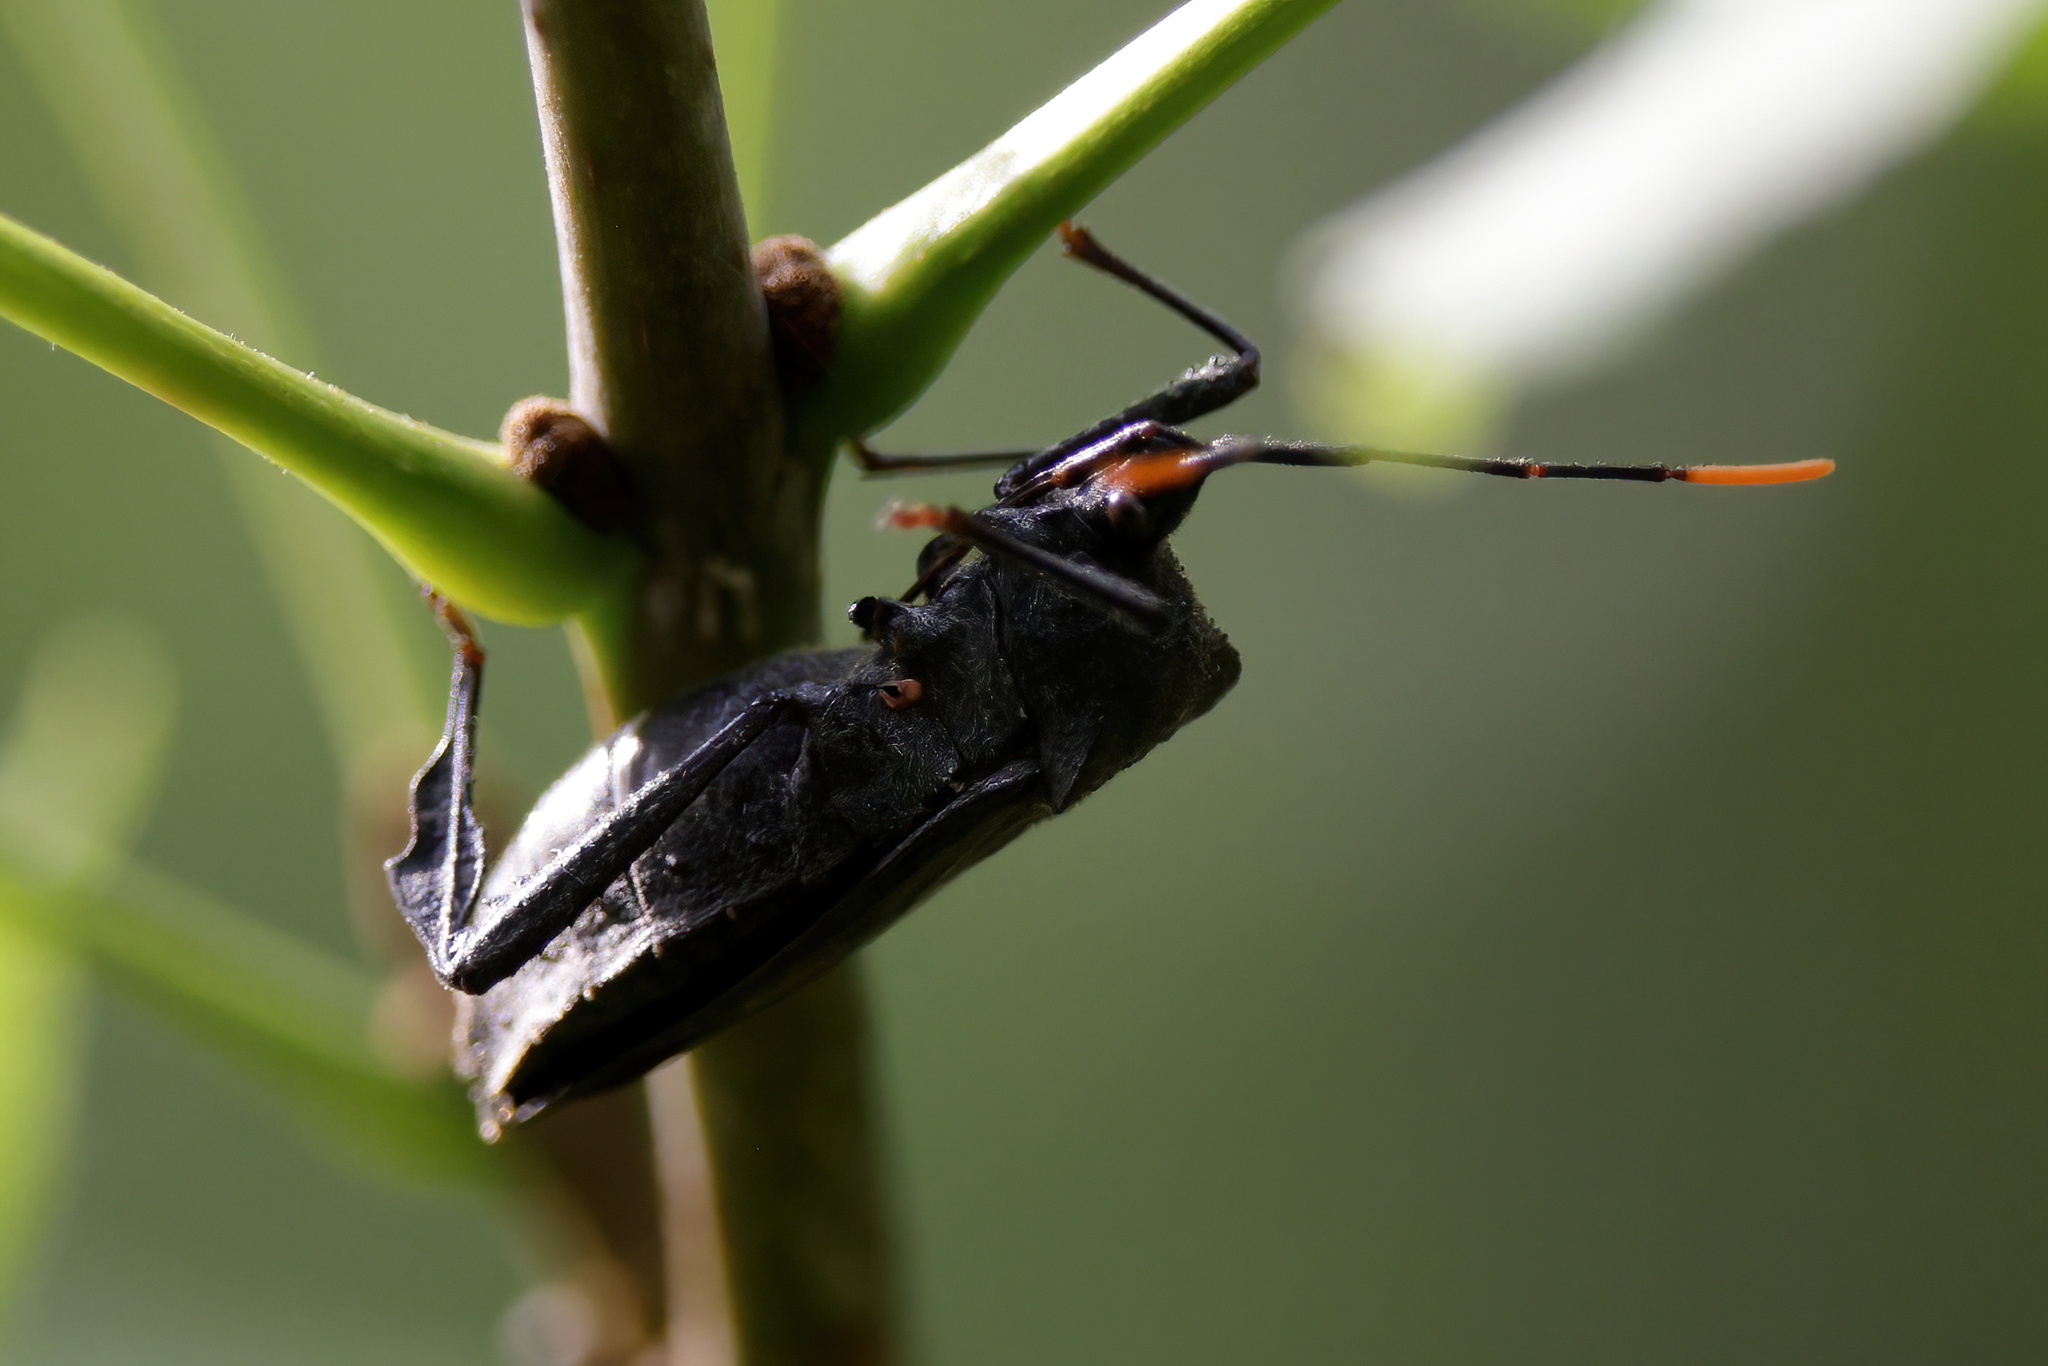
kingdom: Animalia
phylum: Arthropoda
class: Insecta
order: Hemiptera
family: Coreidae
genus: Acanthocephala
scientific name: Acanthocephala terminalis
